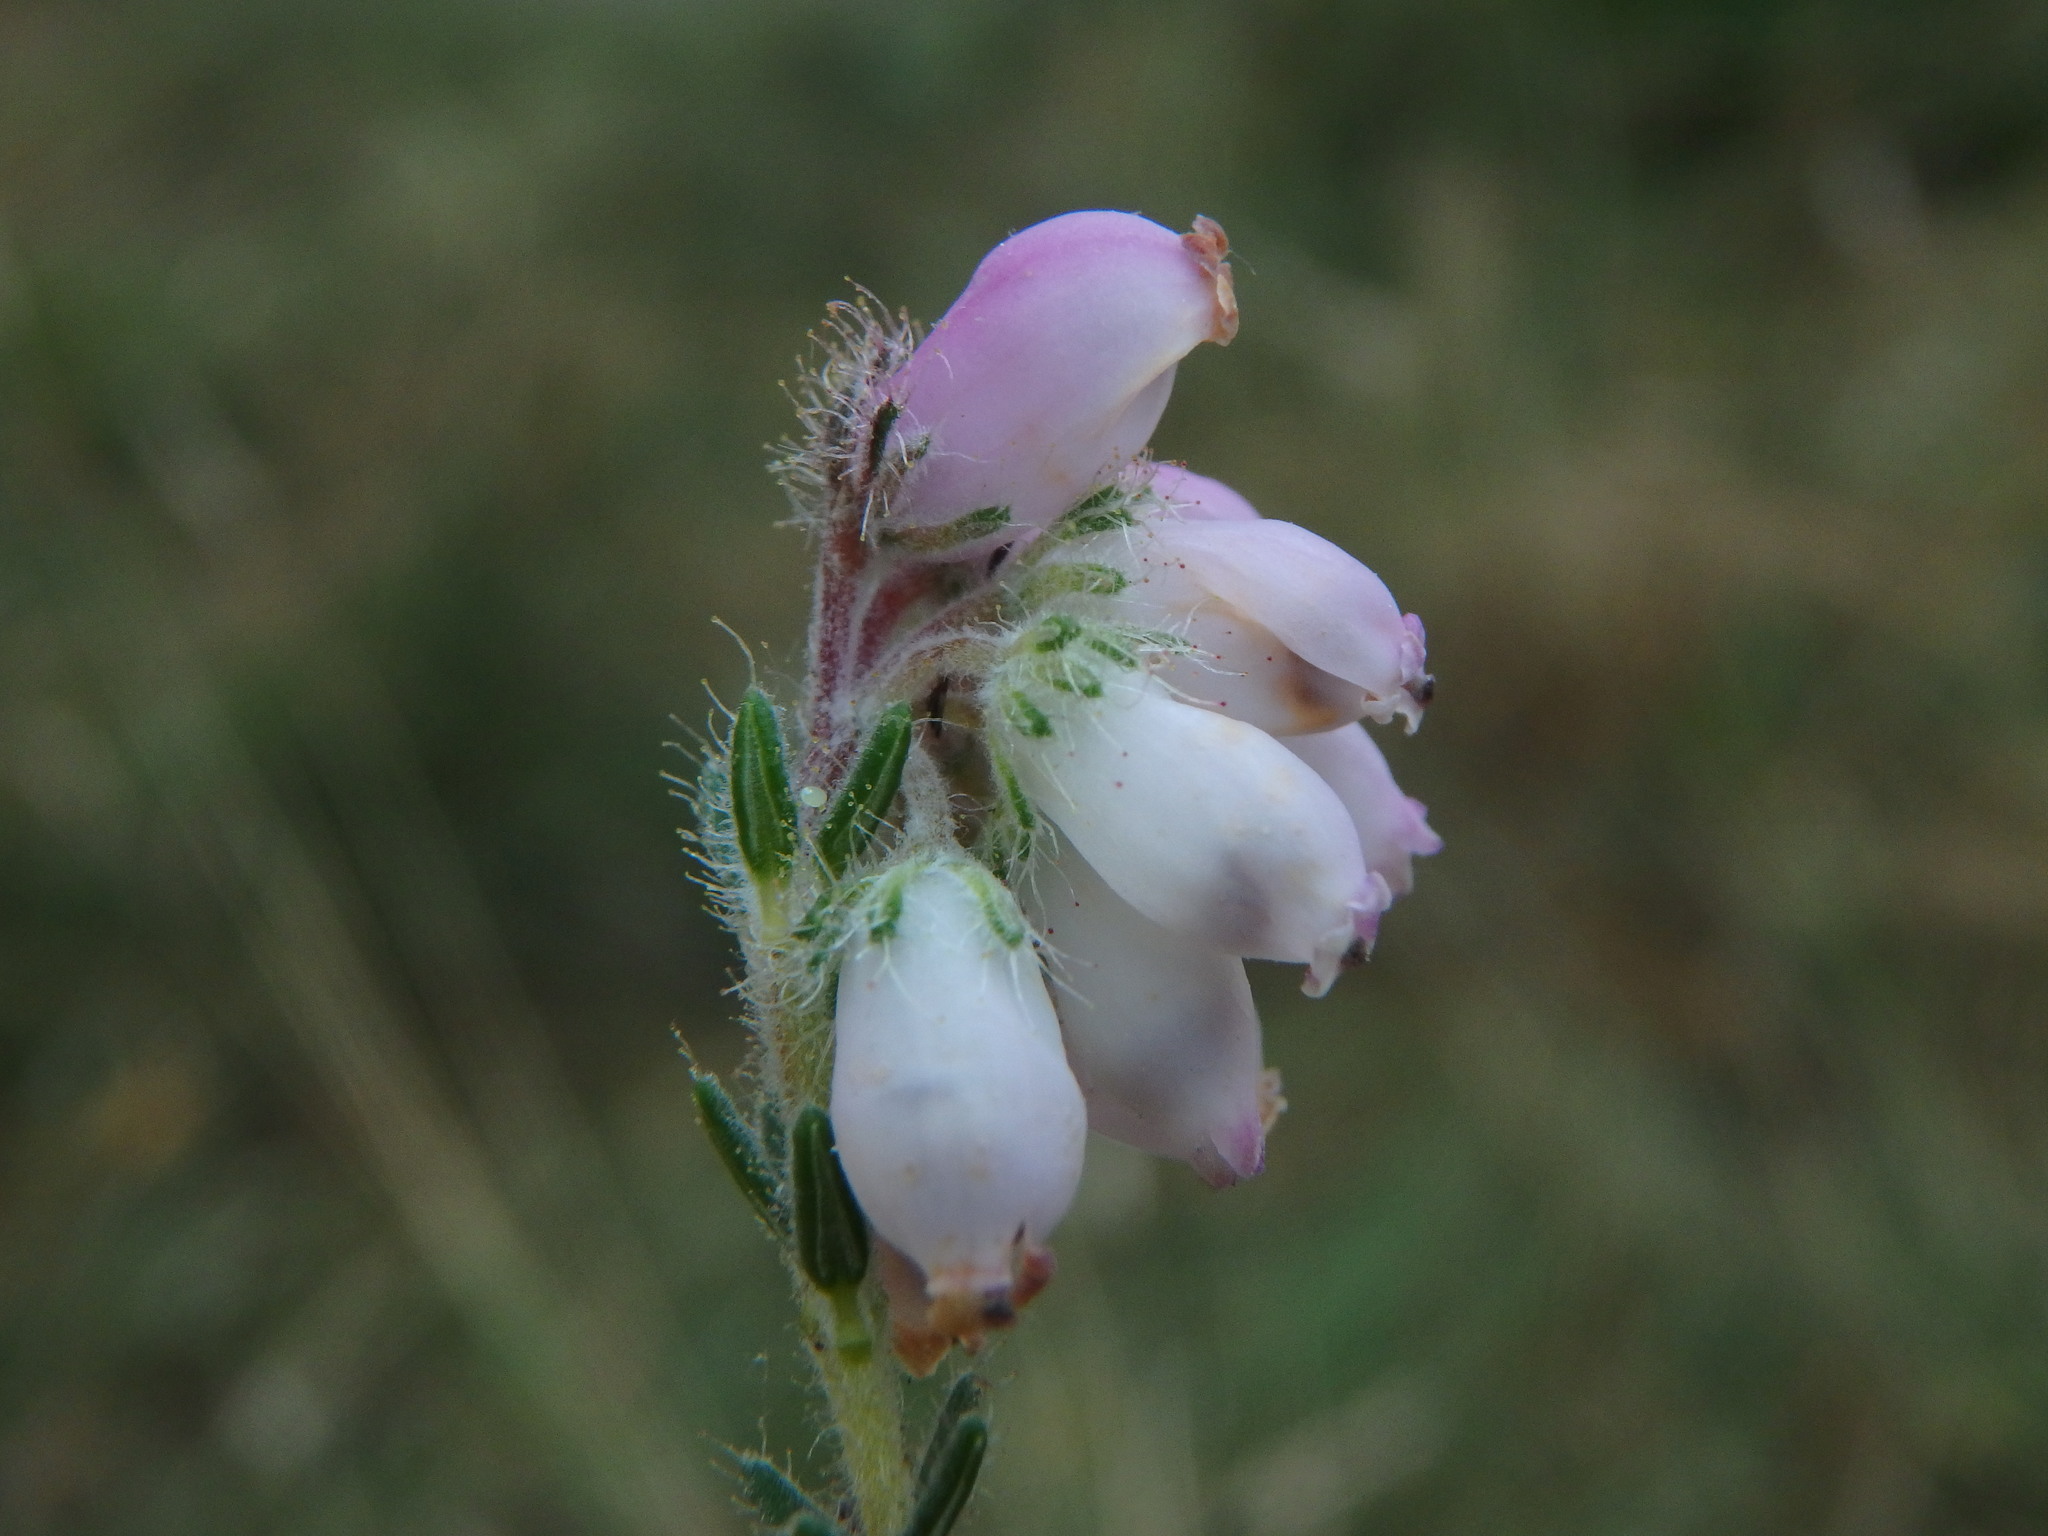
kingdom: Plantae
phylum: Tracheophyta
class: Magnoliopsida
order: Ericales
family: Ericaceae
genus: Erica
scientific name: Erica tetralix
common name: Cross-leaved heath
